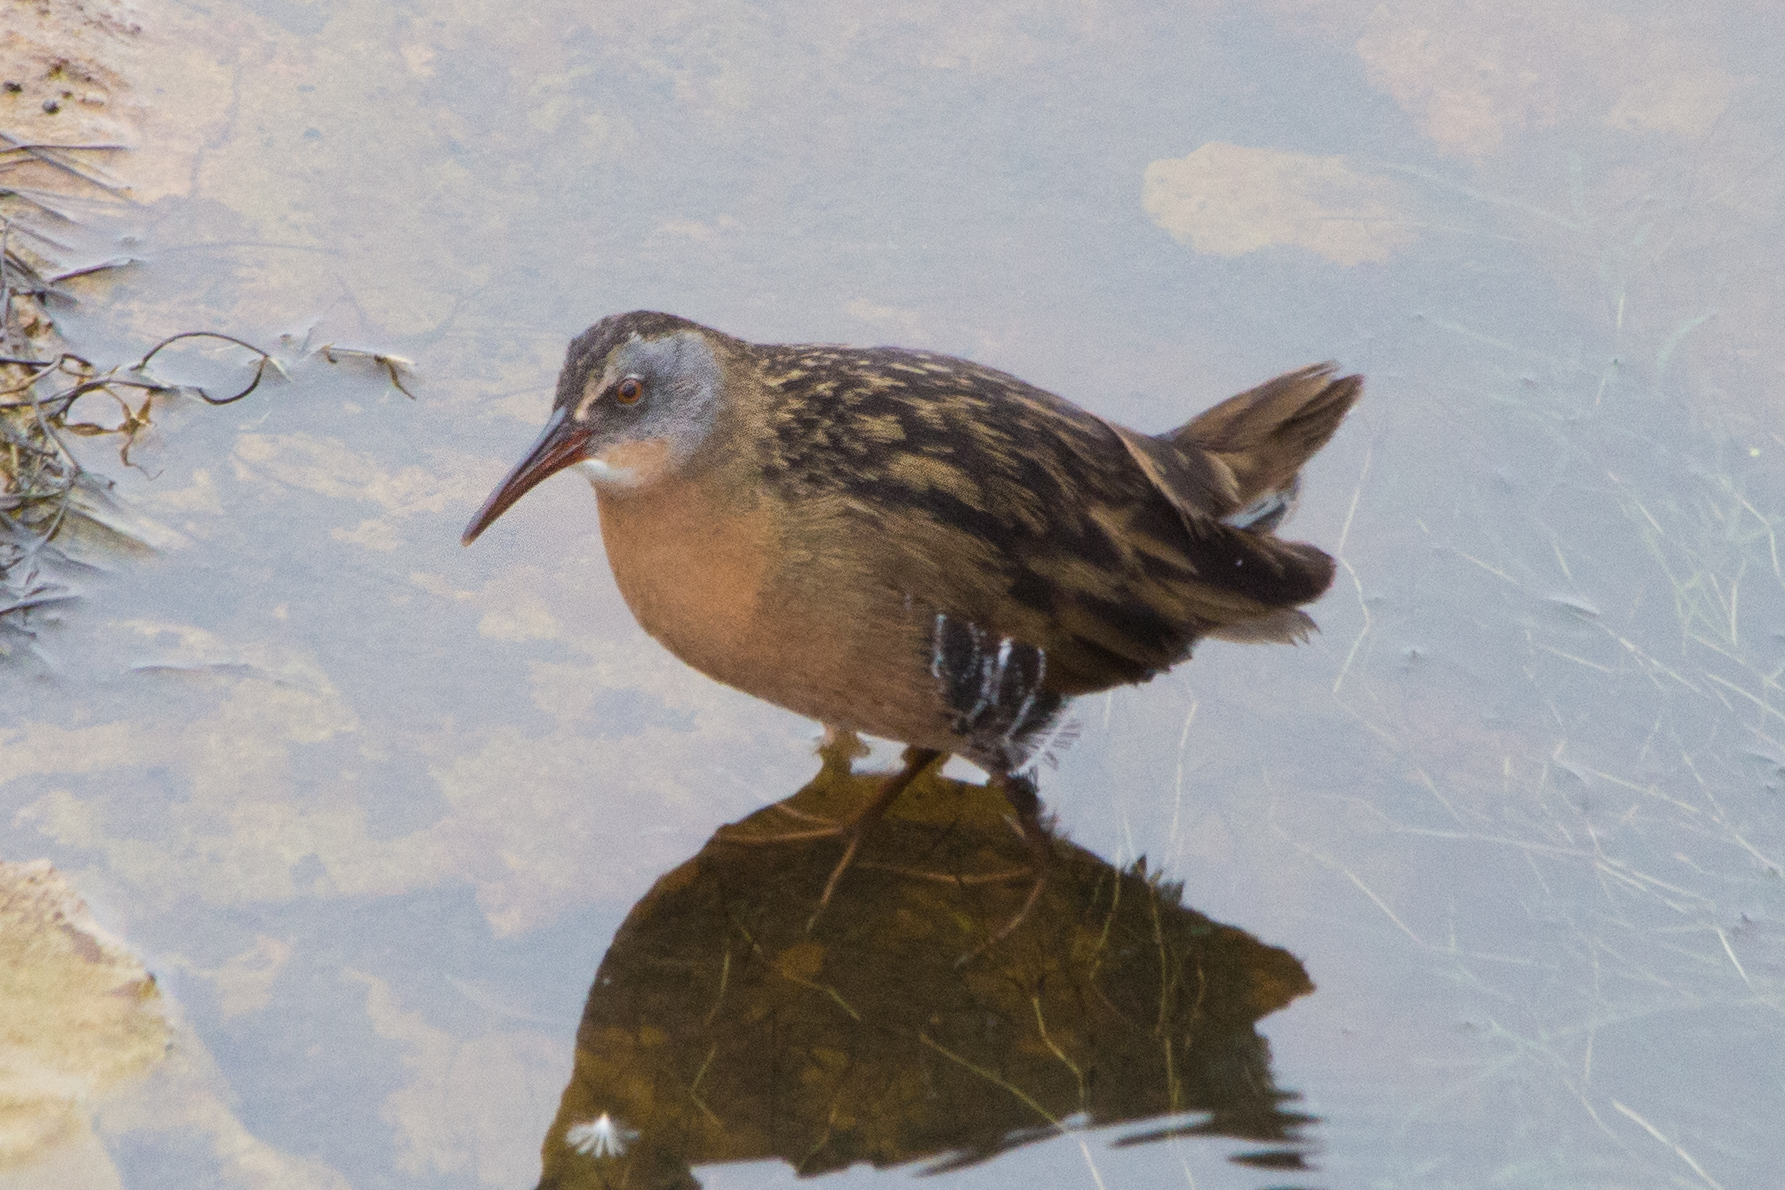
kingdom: Animalia
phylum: Chordata
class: Aves
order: Gruiformes
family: Rallidae
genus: Rallus
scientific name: Rallus limicola
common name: Virginia rail
